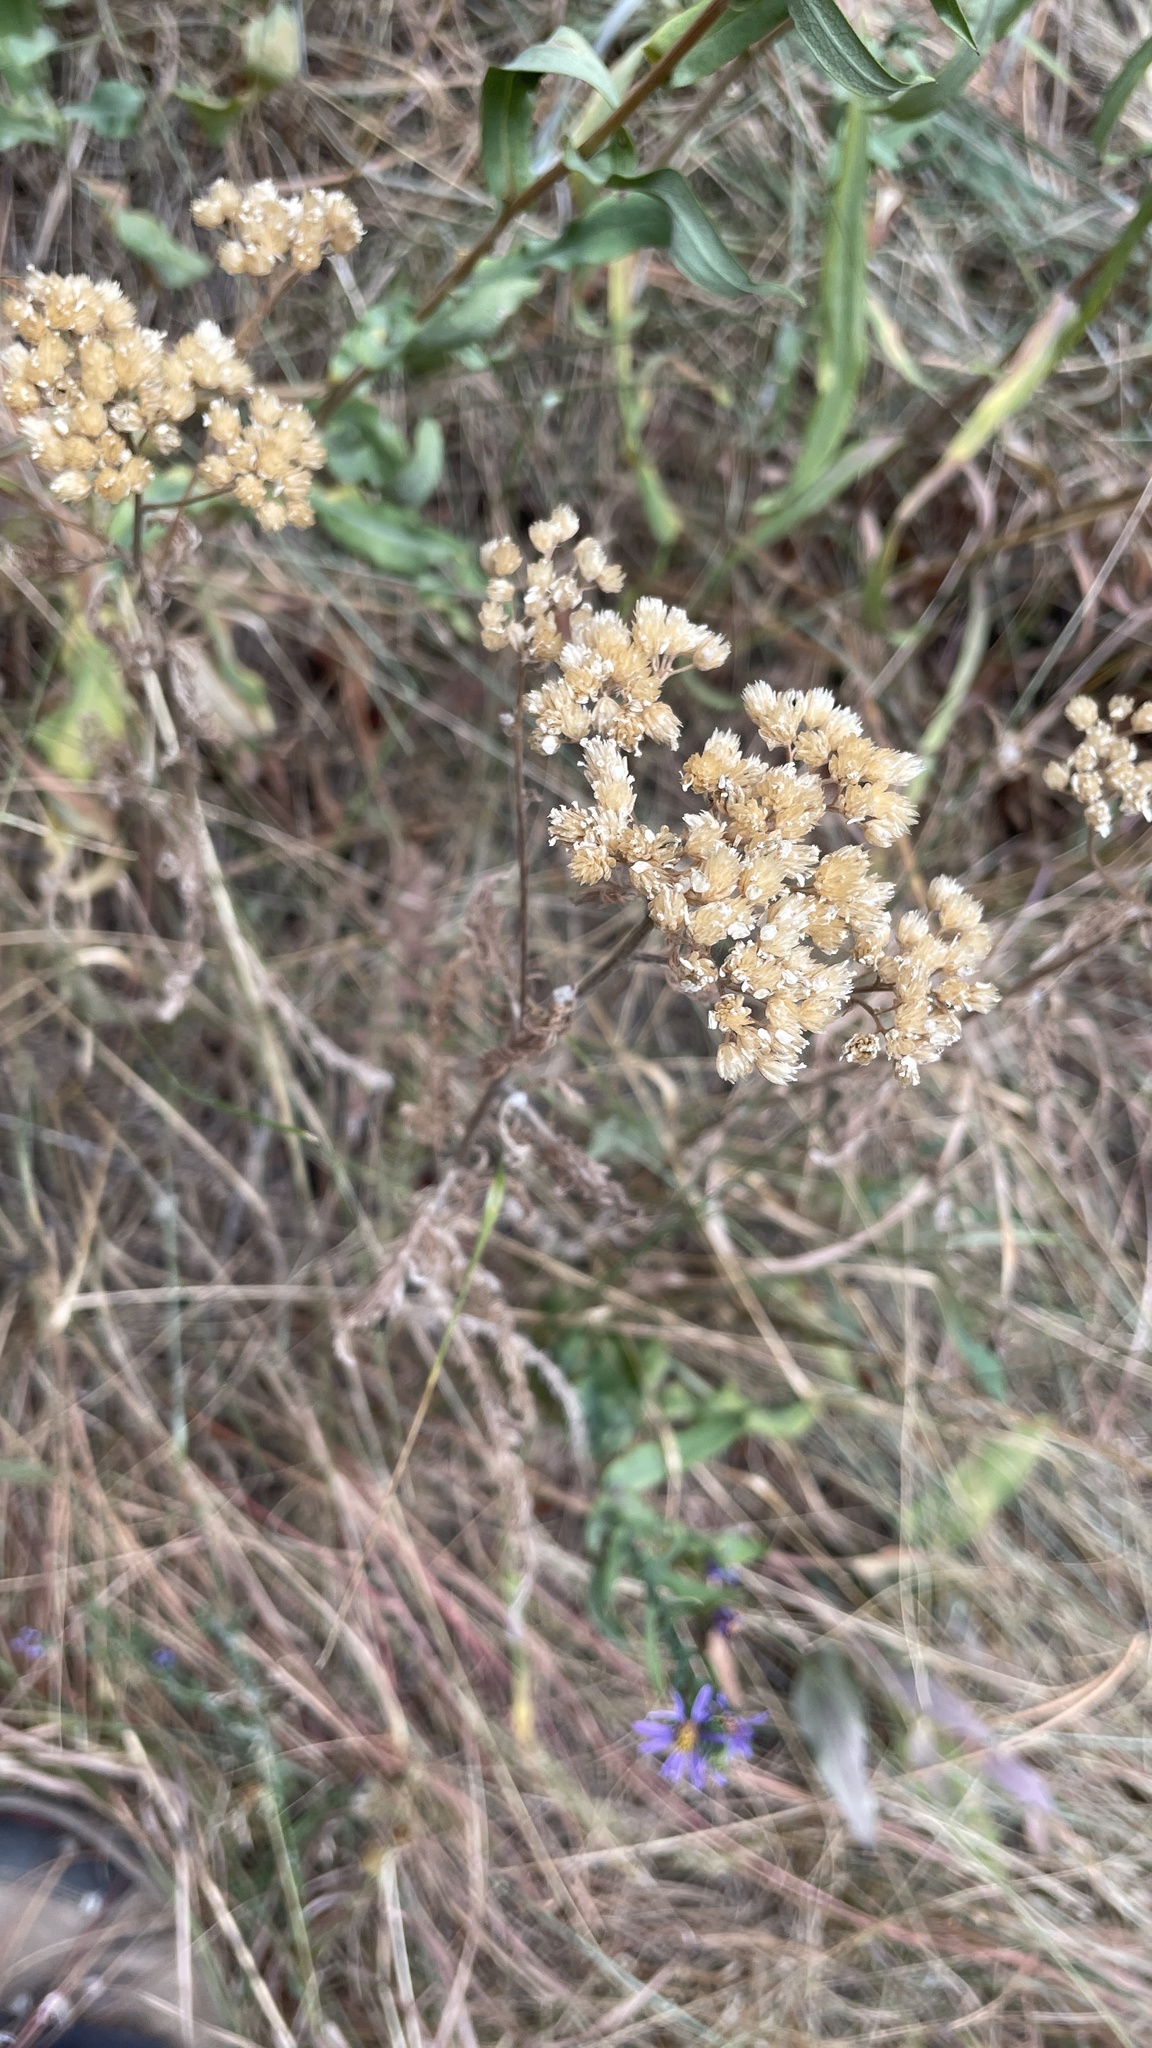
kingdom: Plantae
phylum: Tracheophyta
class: Magnoliopsida
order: Asterales
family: Asteraceae
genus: Achillea
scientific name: Achillea millefolium
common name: Yarrow
